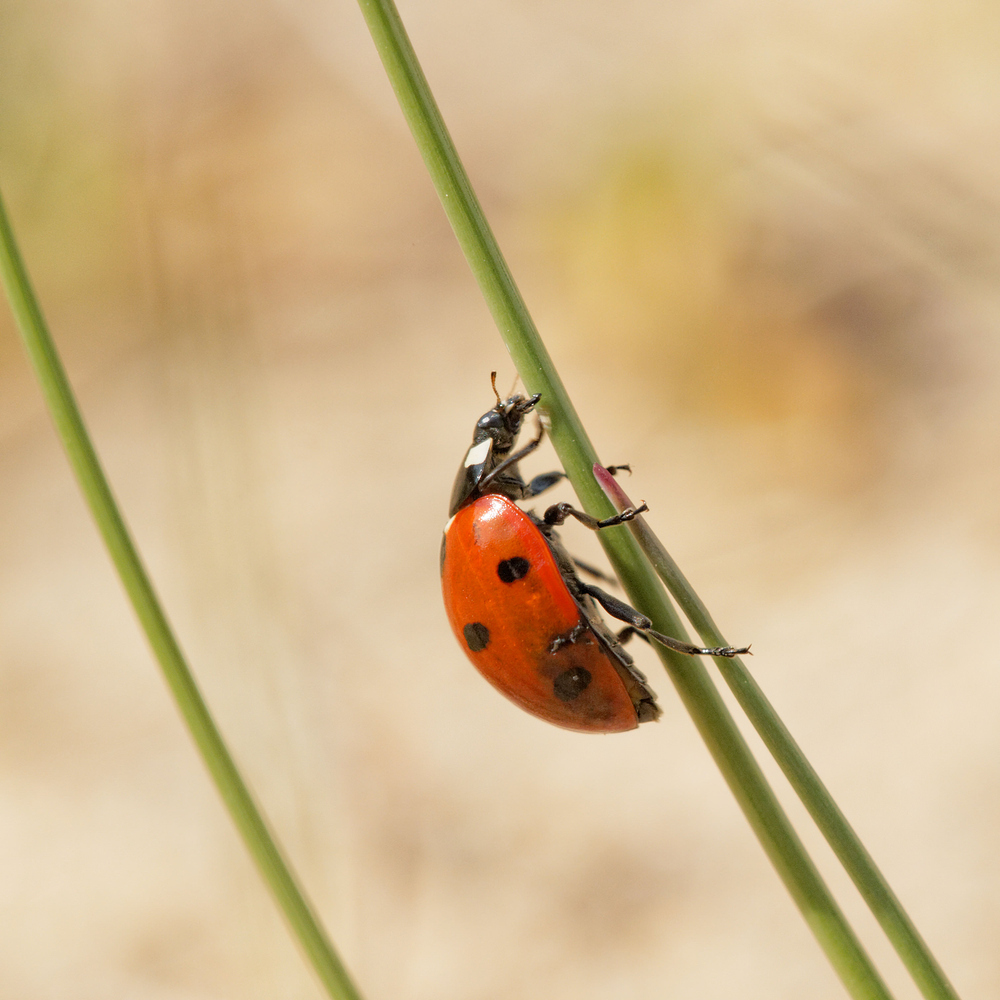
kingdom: Animalia
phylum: Arthropoda
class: Insecta
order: Coleoptera
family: Coccinellidae
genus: Coccinella
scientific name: Coccinella septempunctata
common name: Sevenspotted lady beetle
